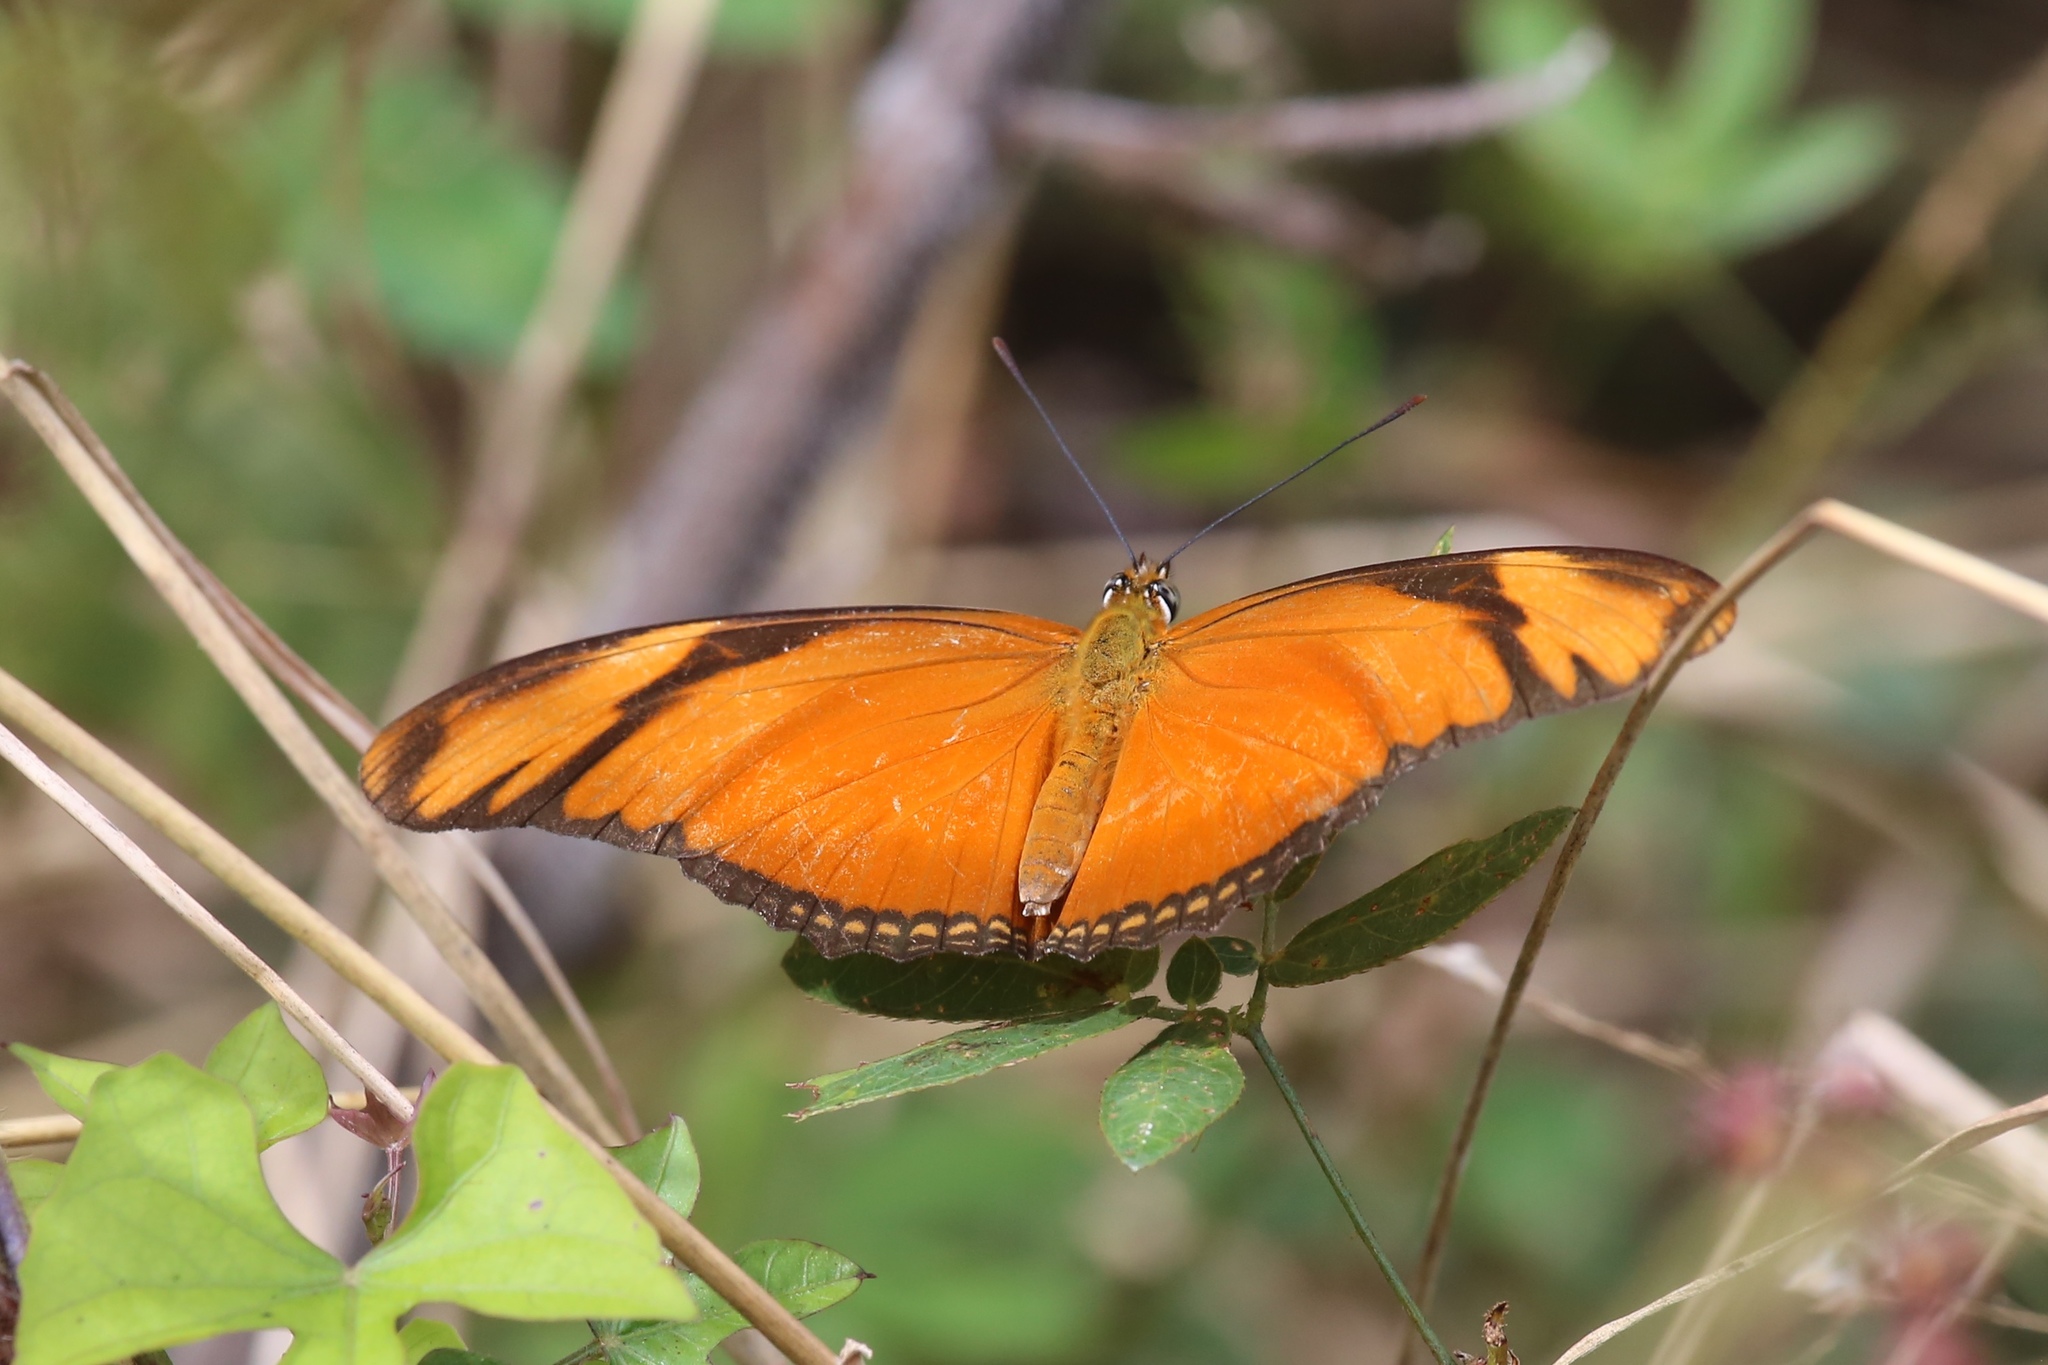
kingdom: Animalia
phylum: Arthropoda
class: Insecta
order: Lepidoptera
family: Nymphalidae
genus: Dryas
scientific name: Dryas iulia
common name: Flambeau
